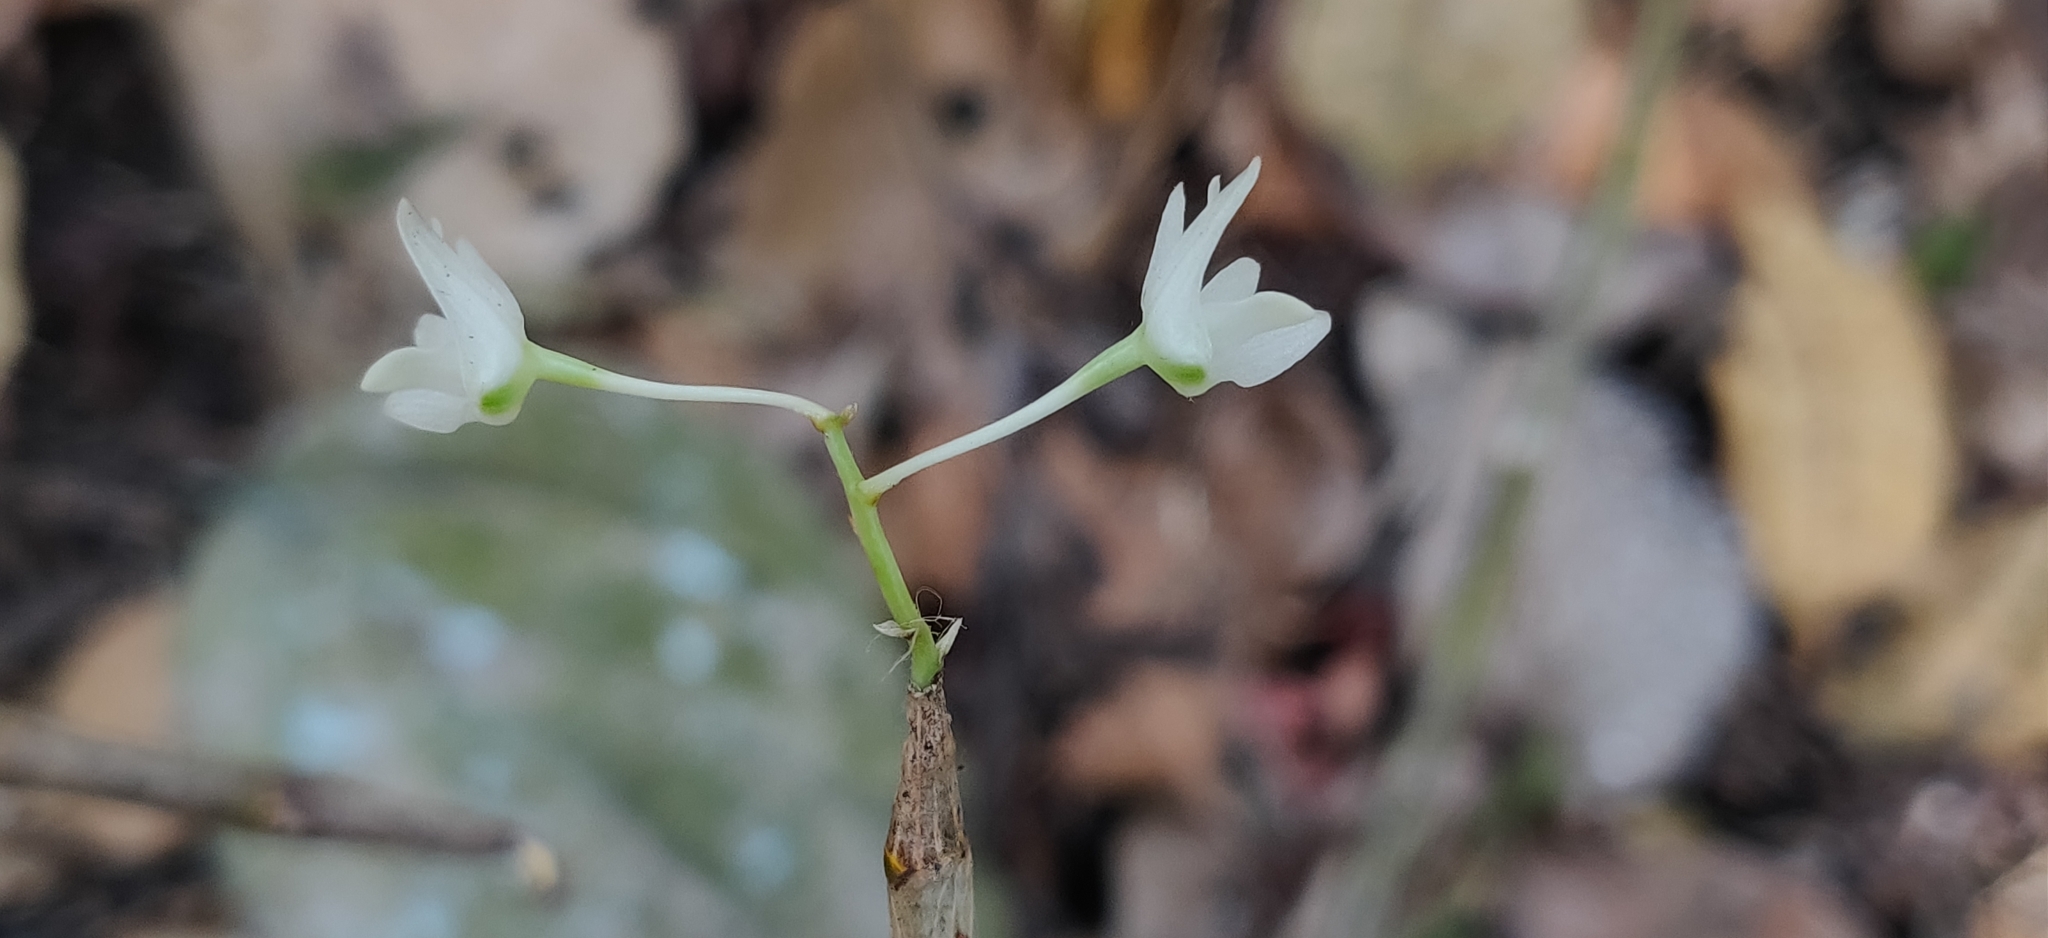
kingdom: Plantae
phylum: Tracheophyta
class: Liliopsida
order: Asparagales
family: Orchidaceae
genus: Dendrobium
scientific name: Dendrobium herbaceum
